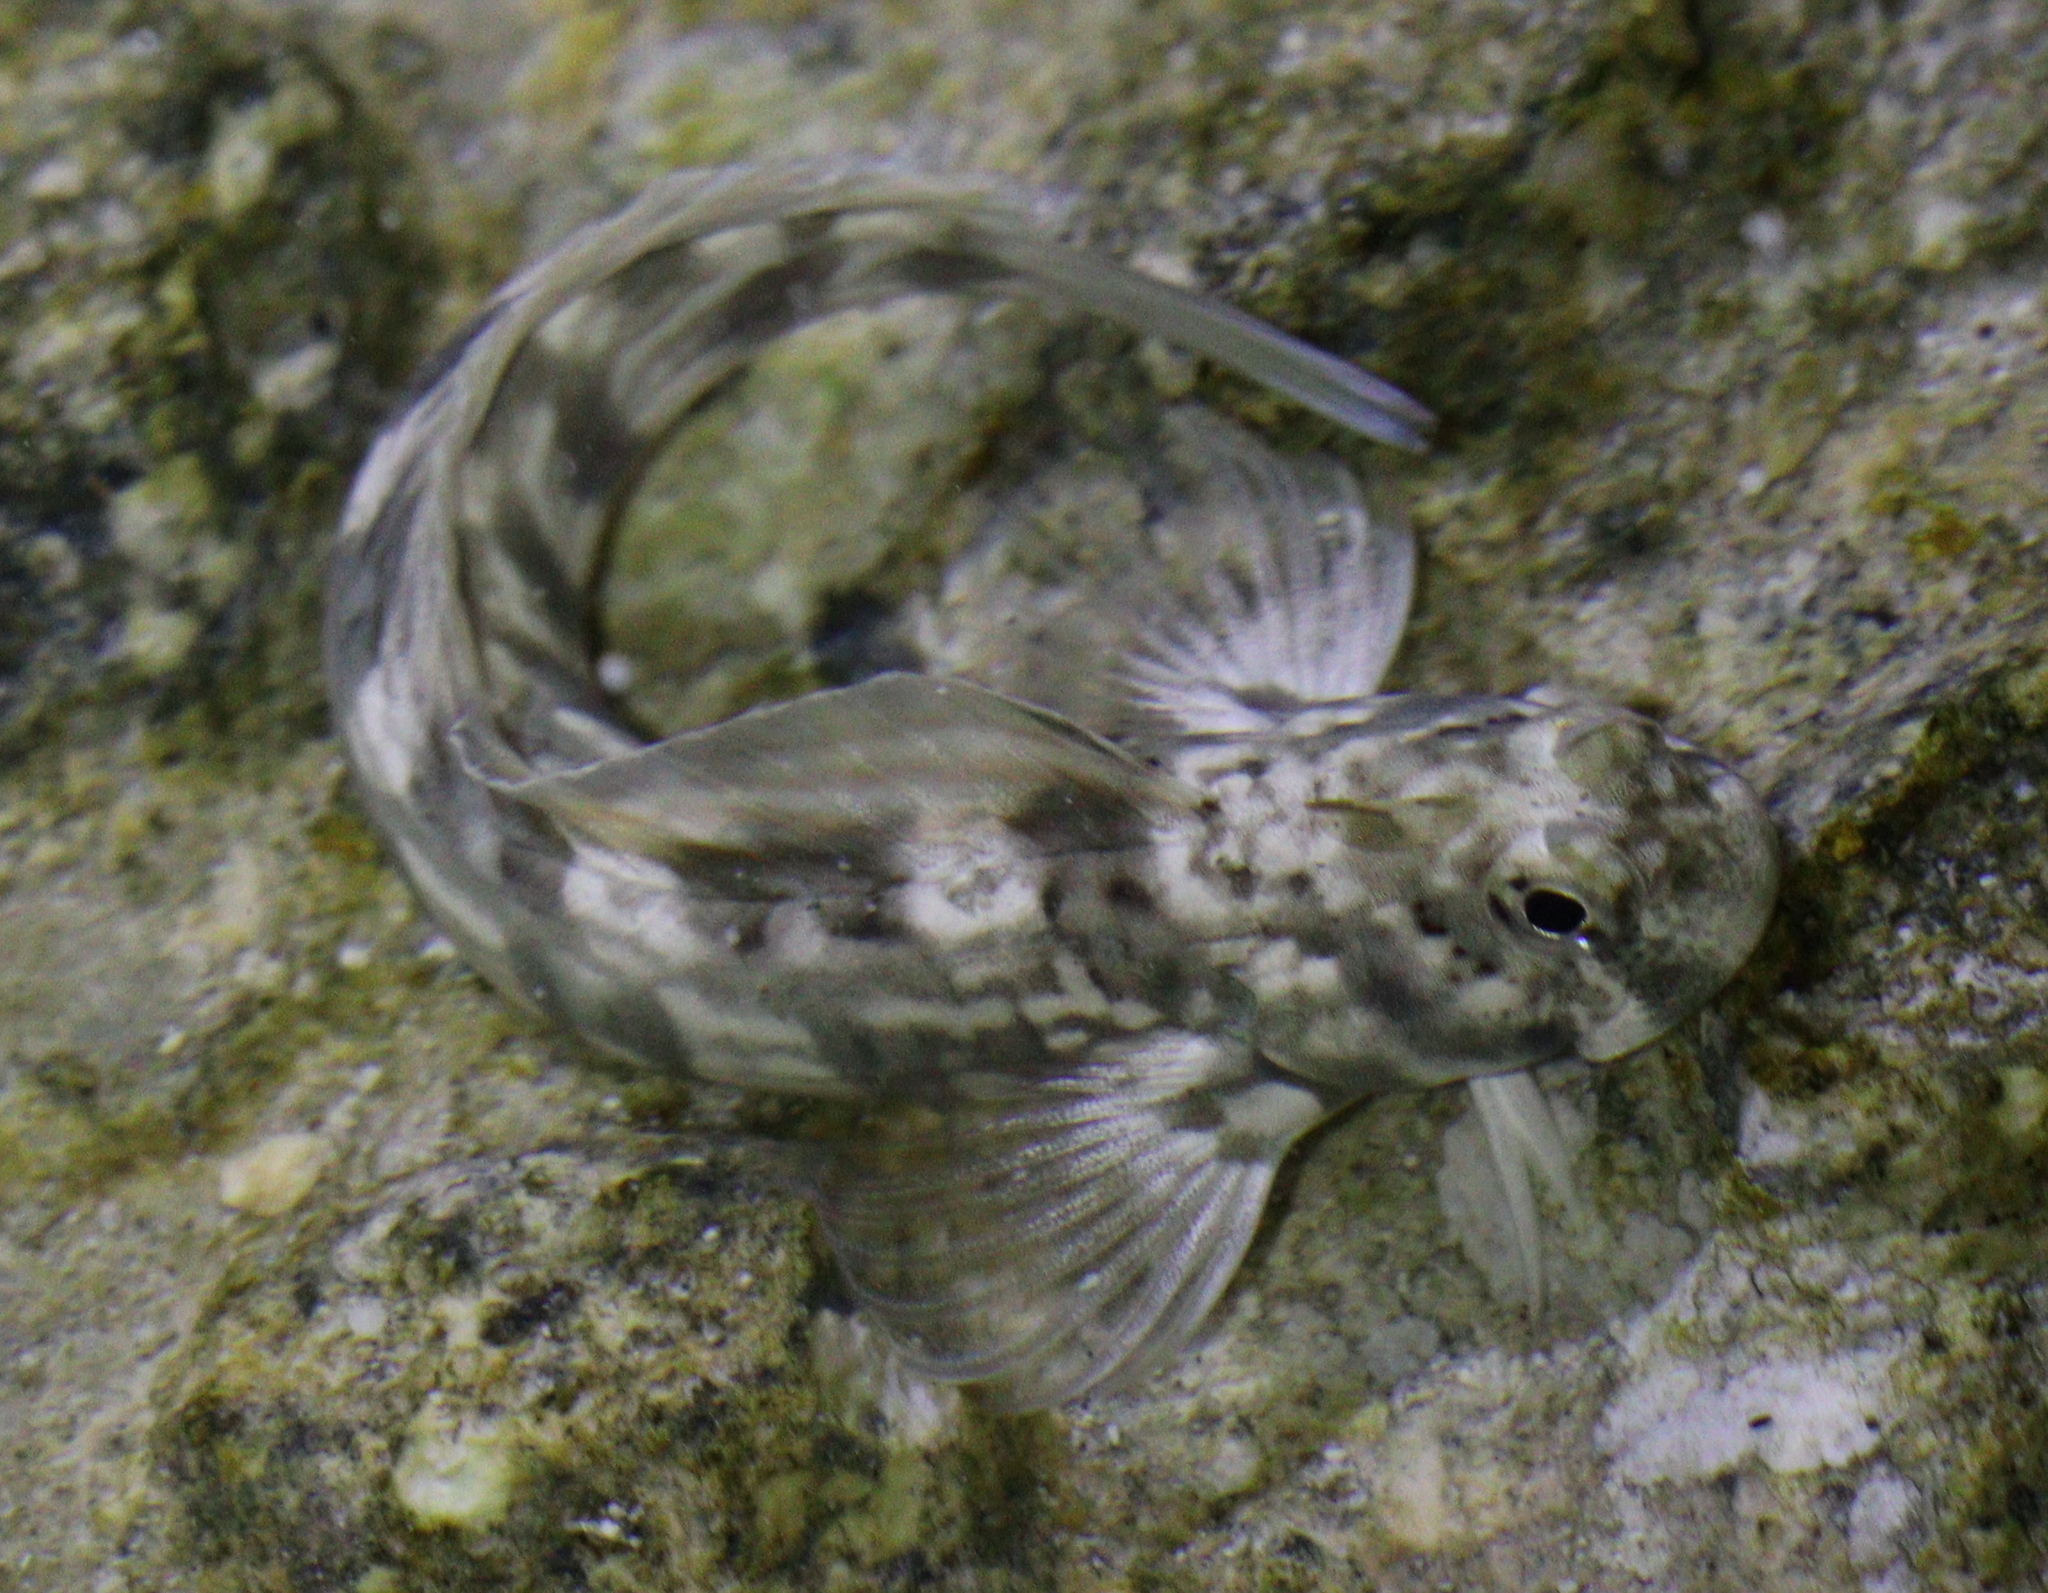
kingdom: Animalia
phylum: Chordata
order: Perciformes
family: Blenniidae
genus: Istiblennius
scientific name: Istiblennius rivulatus
